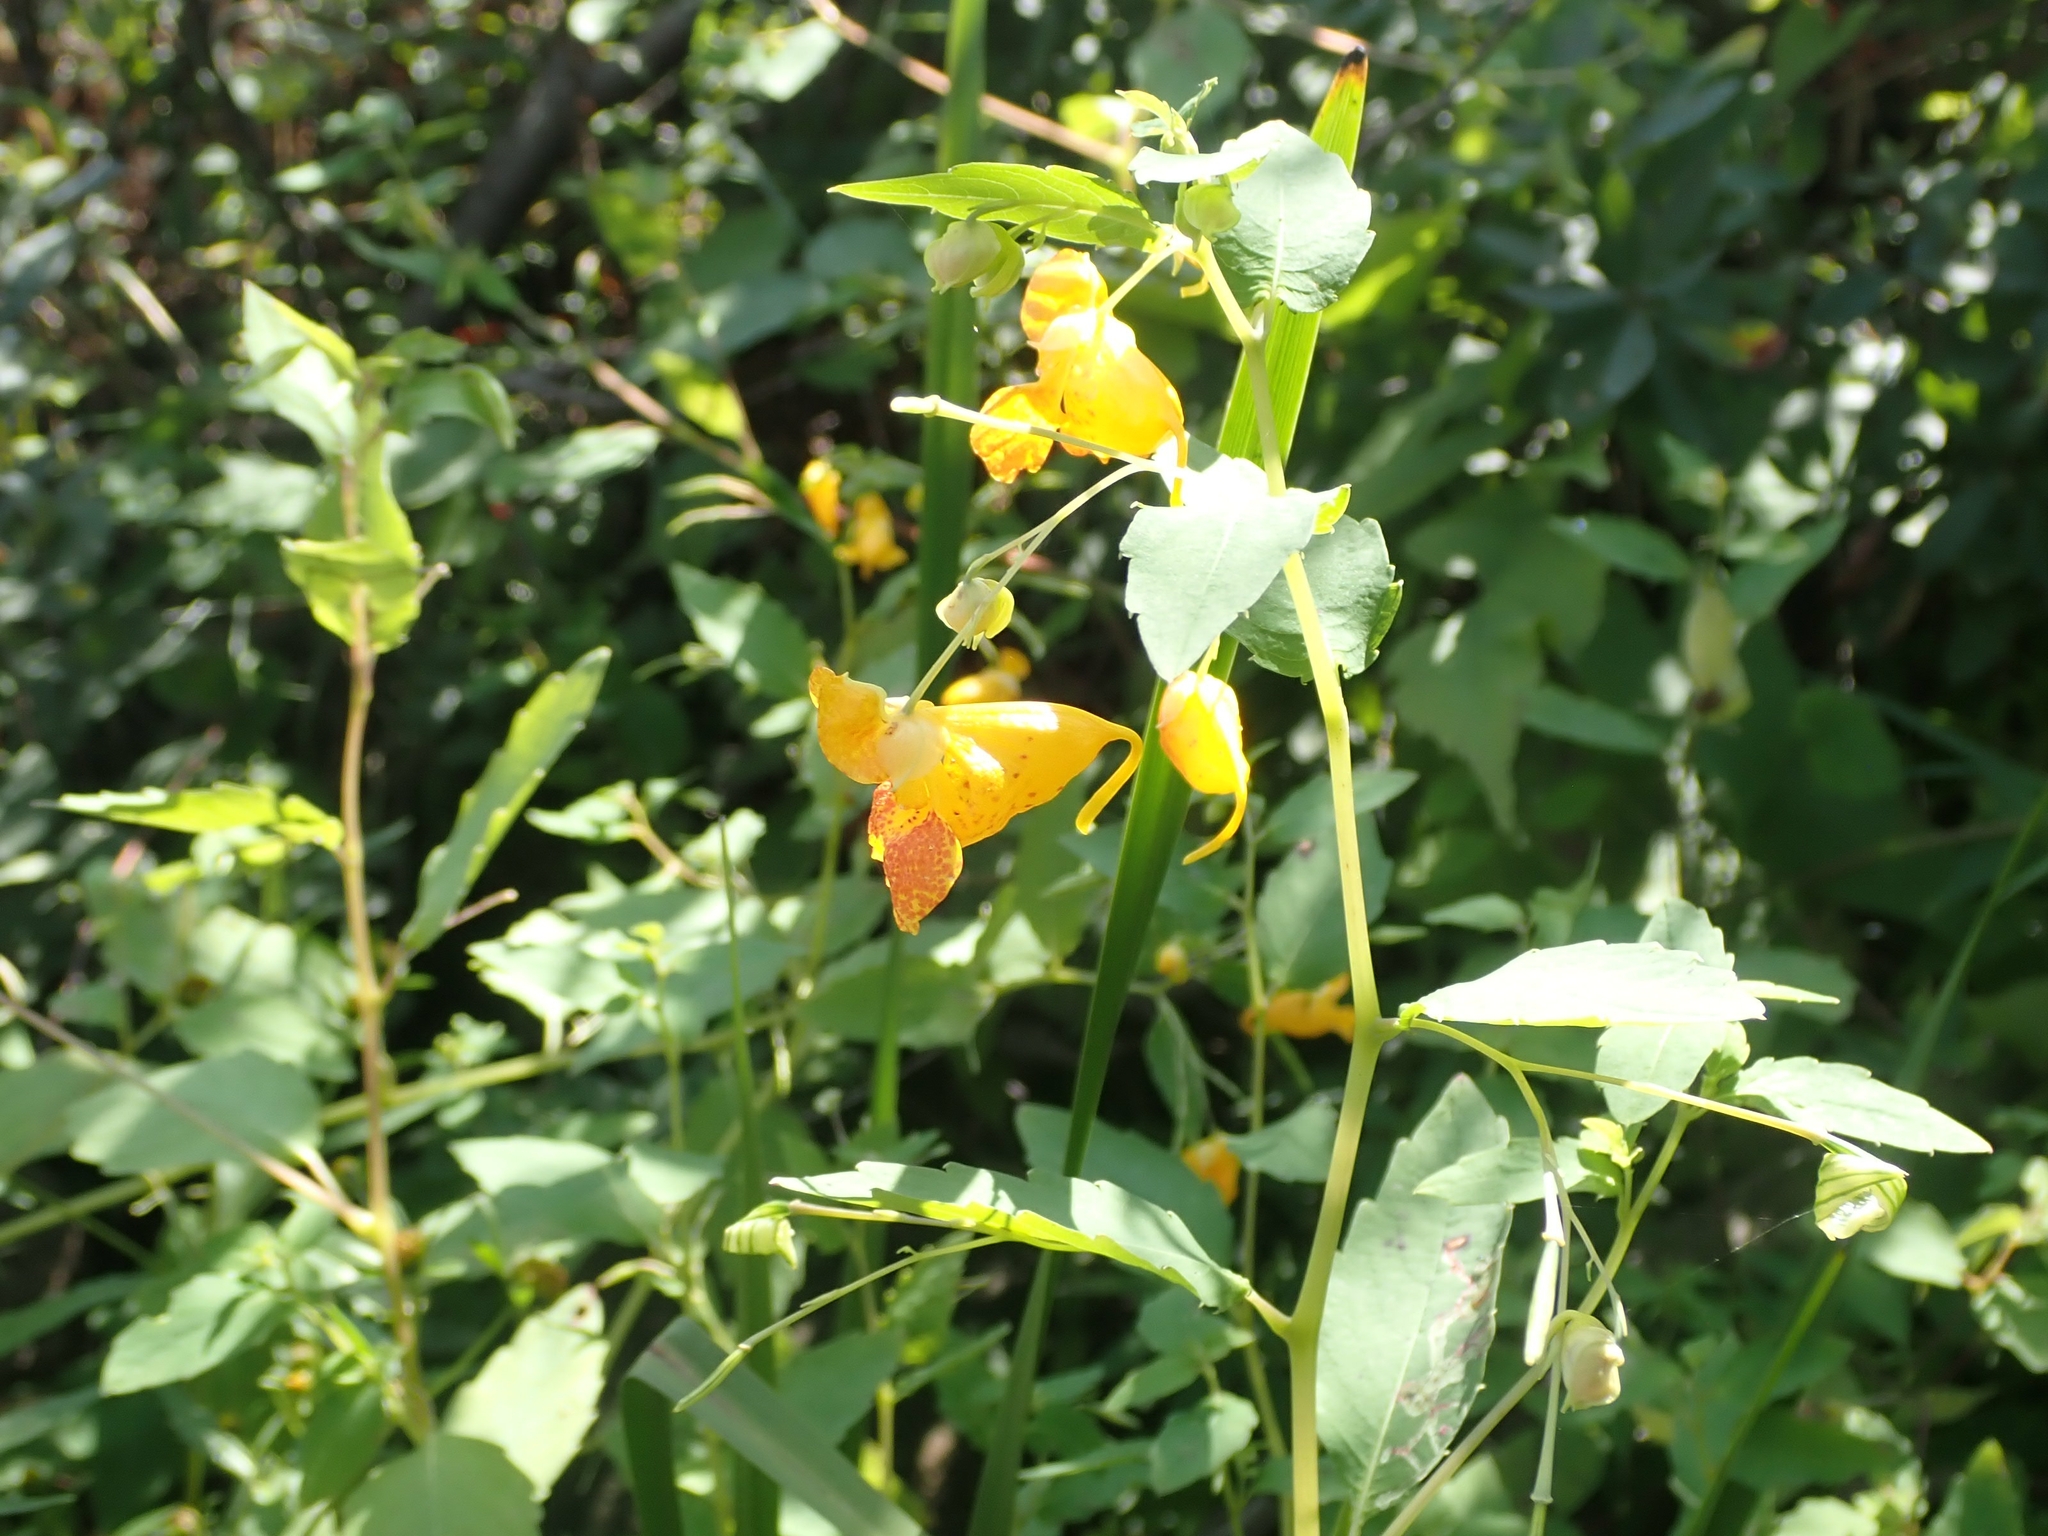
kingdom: Plantae
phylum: Tracheophyta
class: Magnoliopsida
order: Ericales
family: Balsaminaceae
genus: Impatiens
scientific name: Impatiens capensis
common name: Orange balsam
